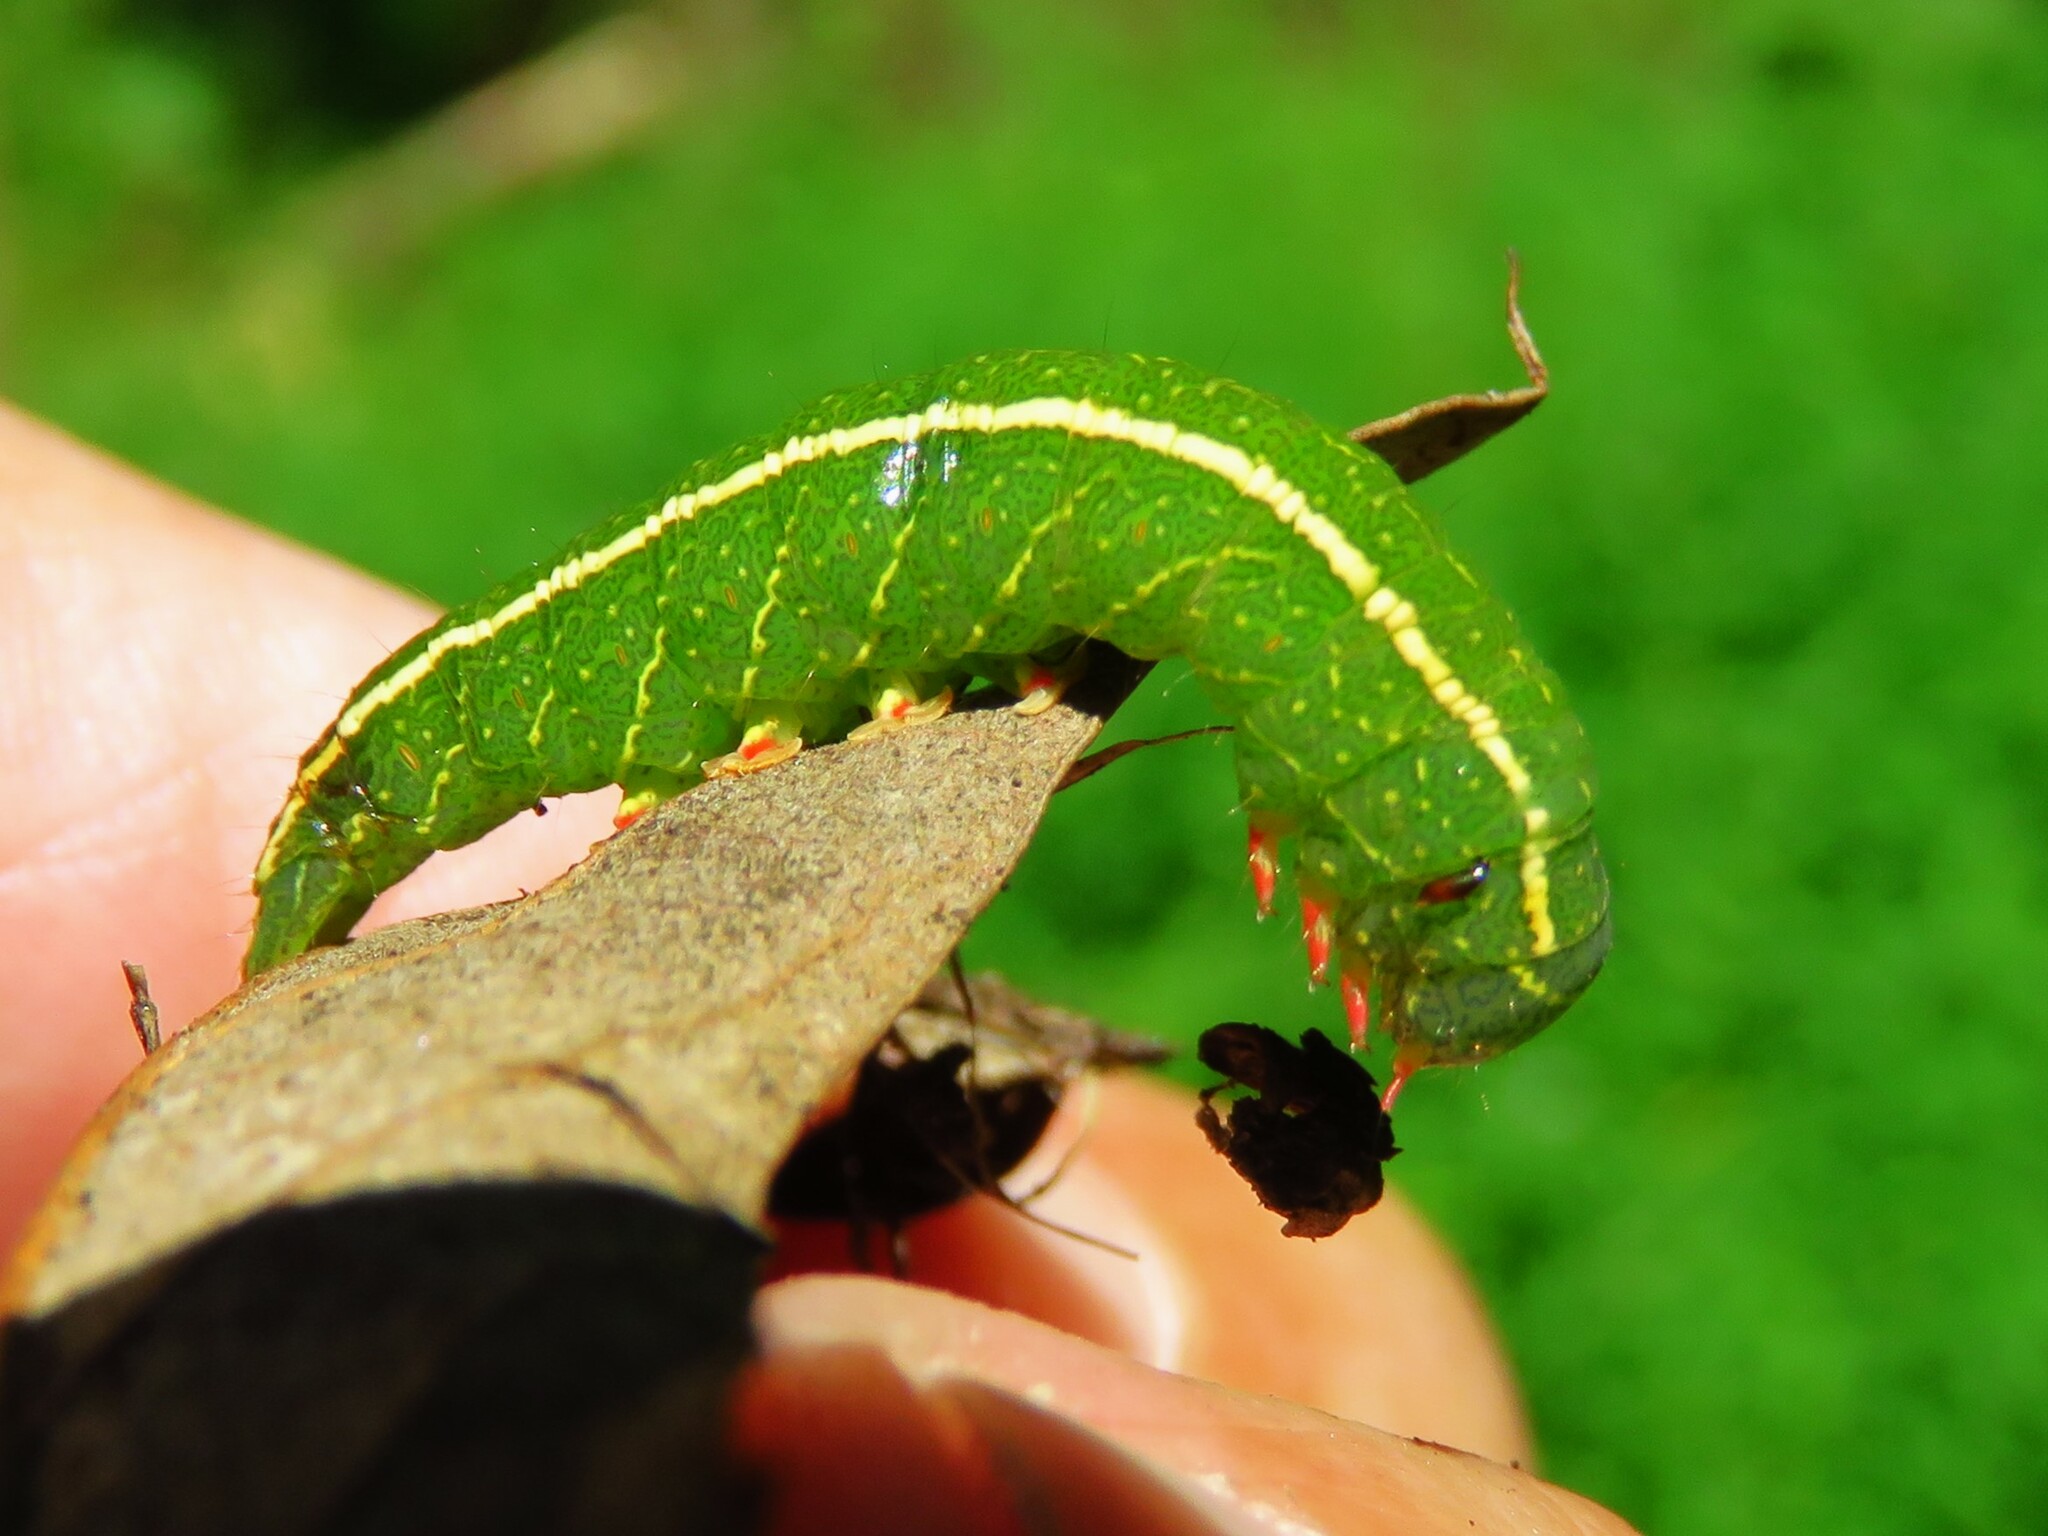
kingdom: Animalia
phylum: Arthropoda
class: Insecta
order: Lepidoptera
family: Erebidae
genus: Panopoda
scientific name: Panopoda rufimargo
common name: Red-lined panopoda moth
